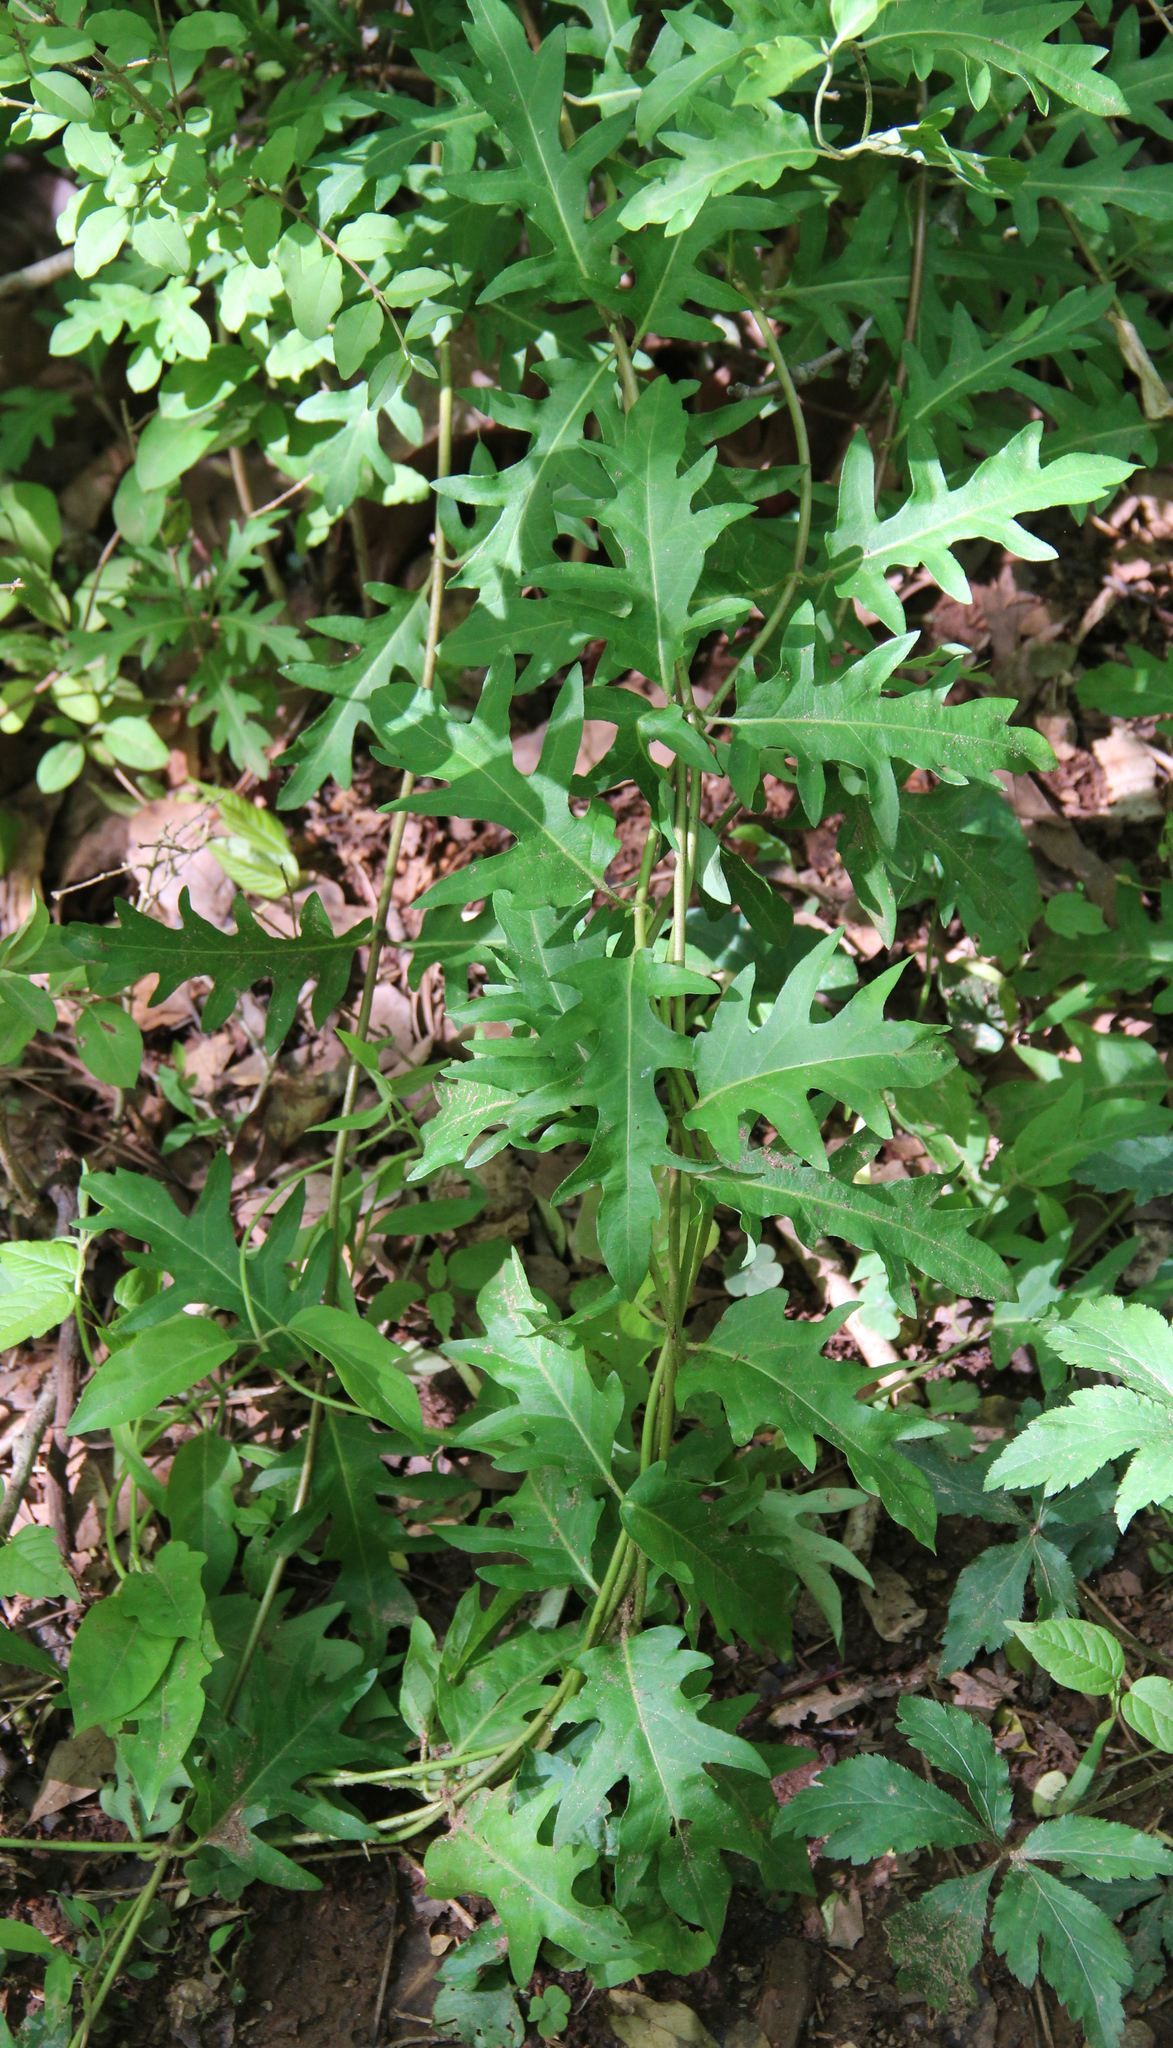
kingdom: Plantae
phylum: Tracheophyta
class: Magnoliopsida
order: Dipsacales
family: Caprifoliaceae
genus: Lonicera
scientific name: Lonicera japonica
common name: Japanese honeysuckle
